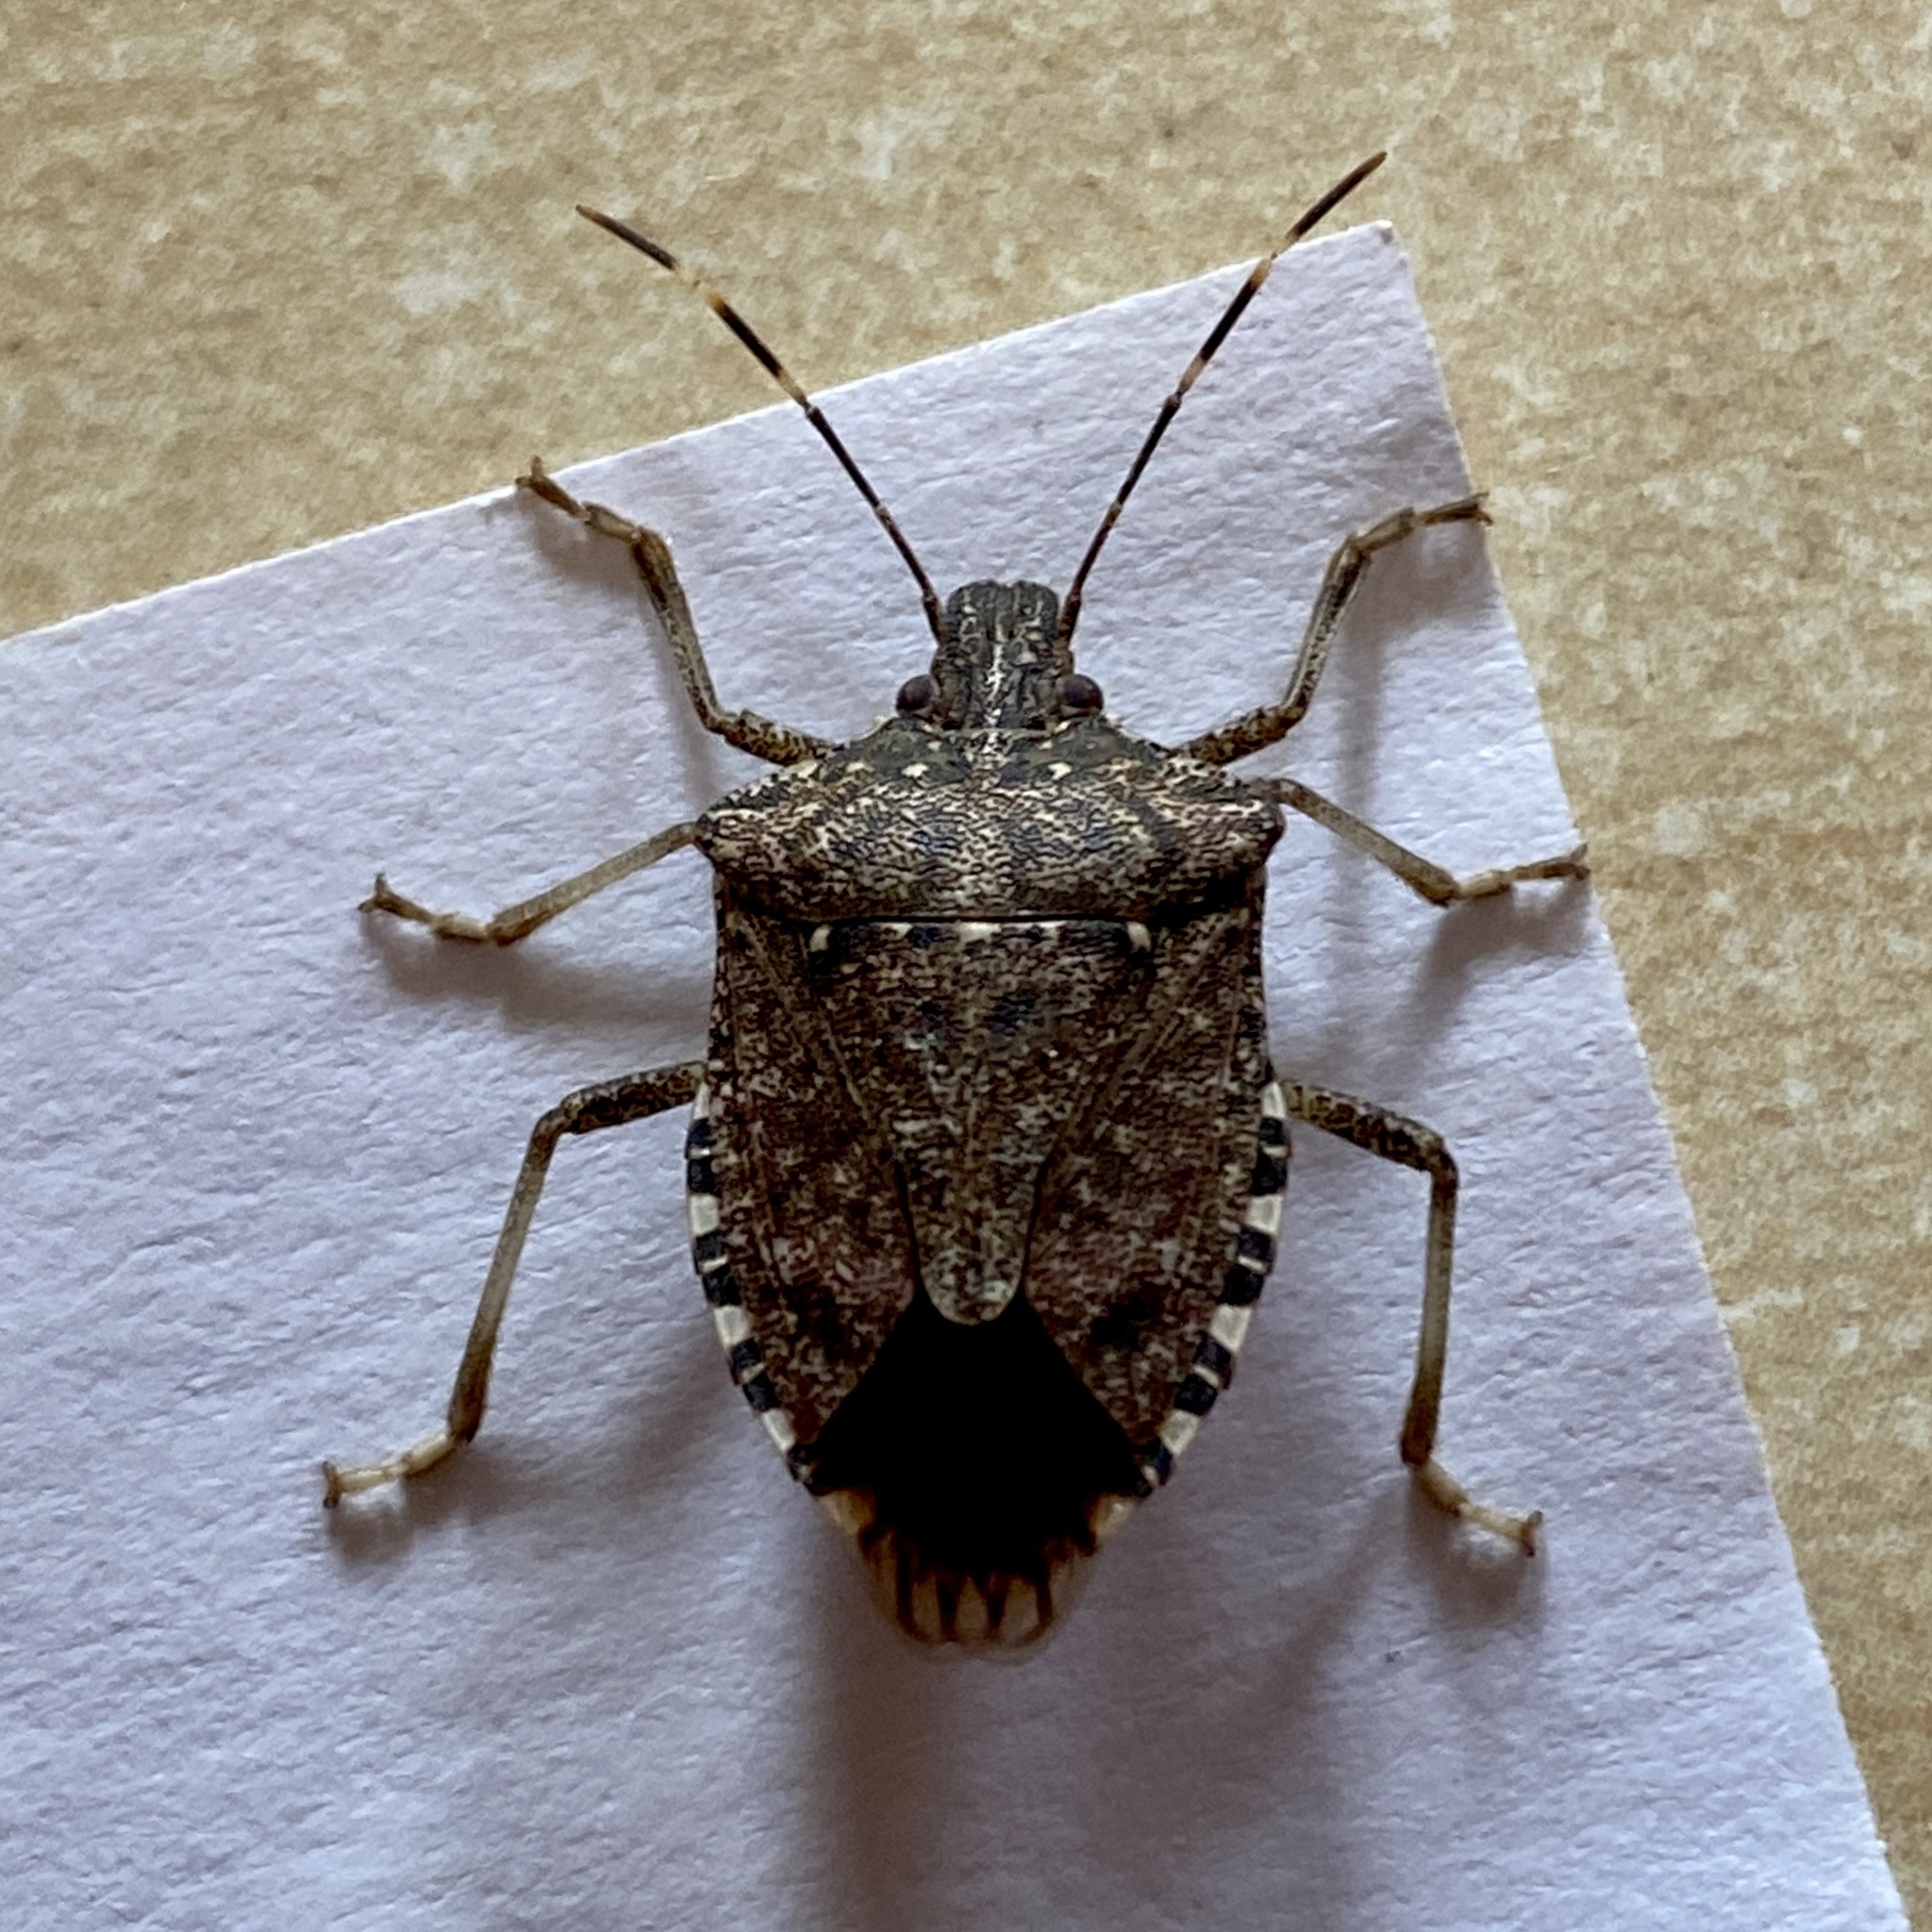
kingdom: Animalia
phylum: Arthropoda
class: Insecta
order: Hemiptera
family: Pentatomidae
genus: Halyomorpha
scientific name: Halyomorpha halys
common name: Brown marmorated stink bug
